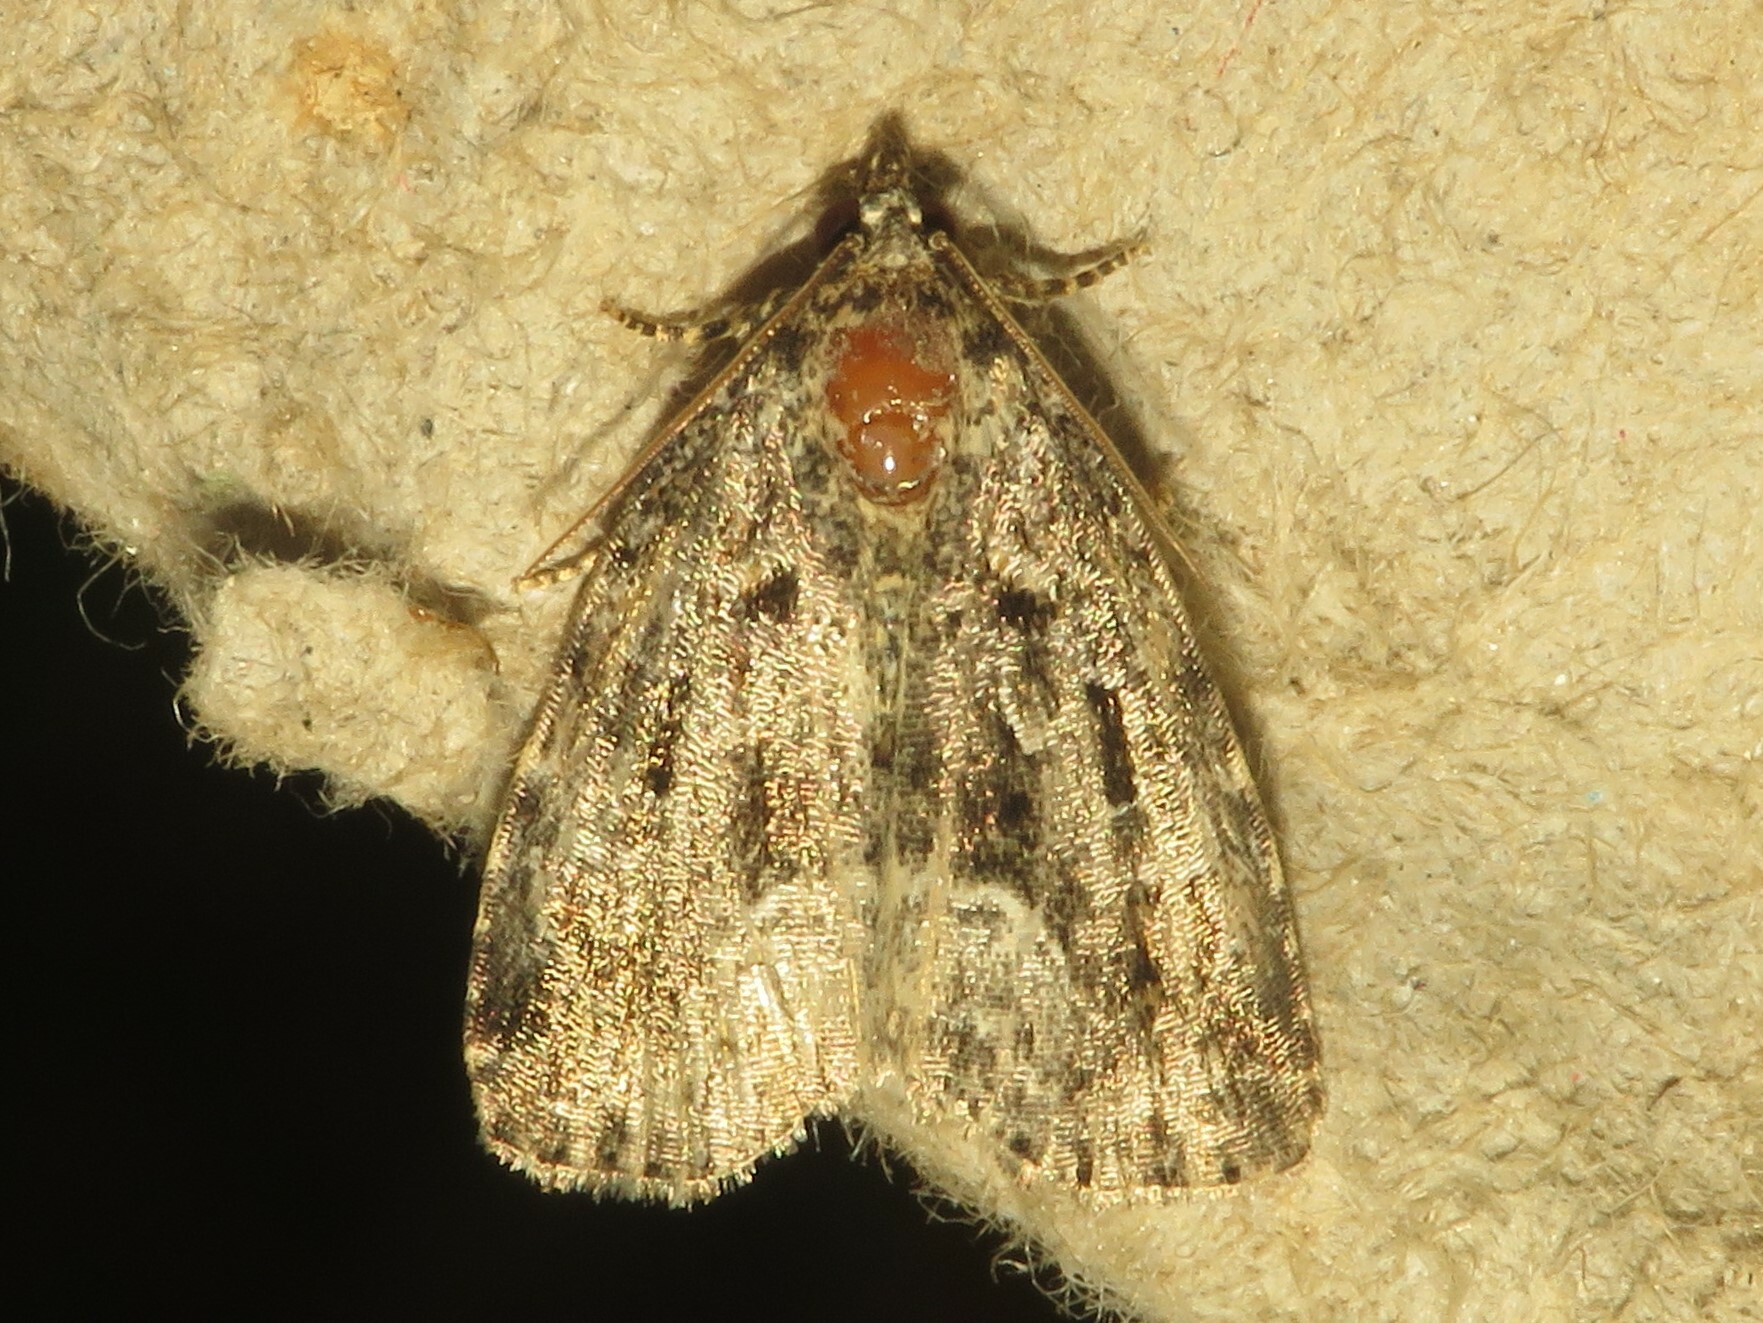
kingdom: Animalia
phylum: Arthropoda
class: Insecta
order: Lepidoptera
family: Noctuidae
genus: Protodeltote
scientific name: Protodeltote muscosula
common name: Large mossy glyph
